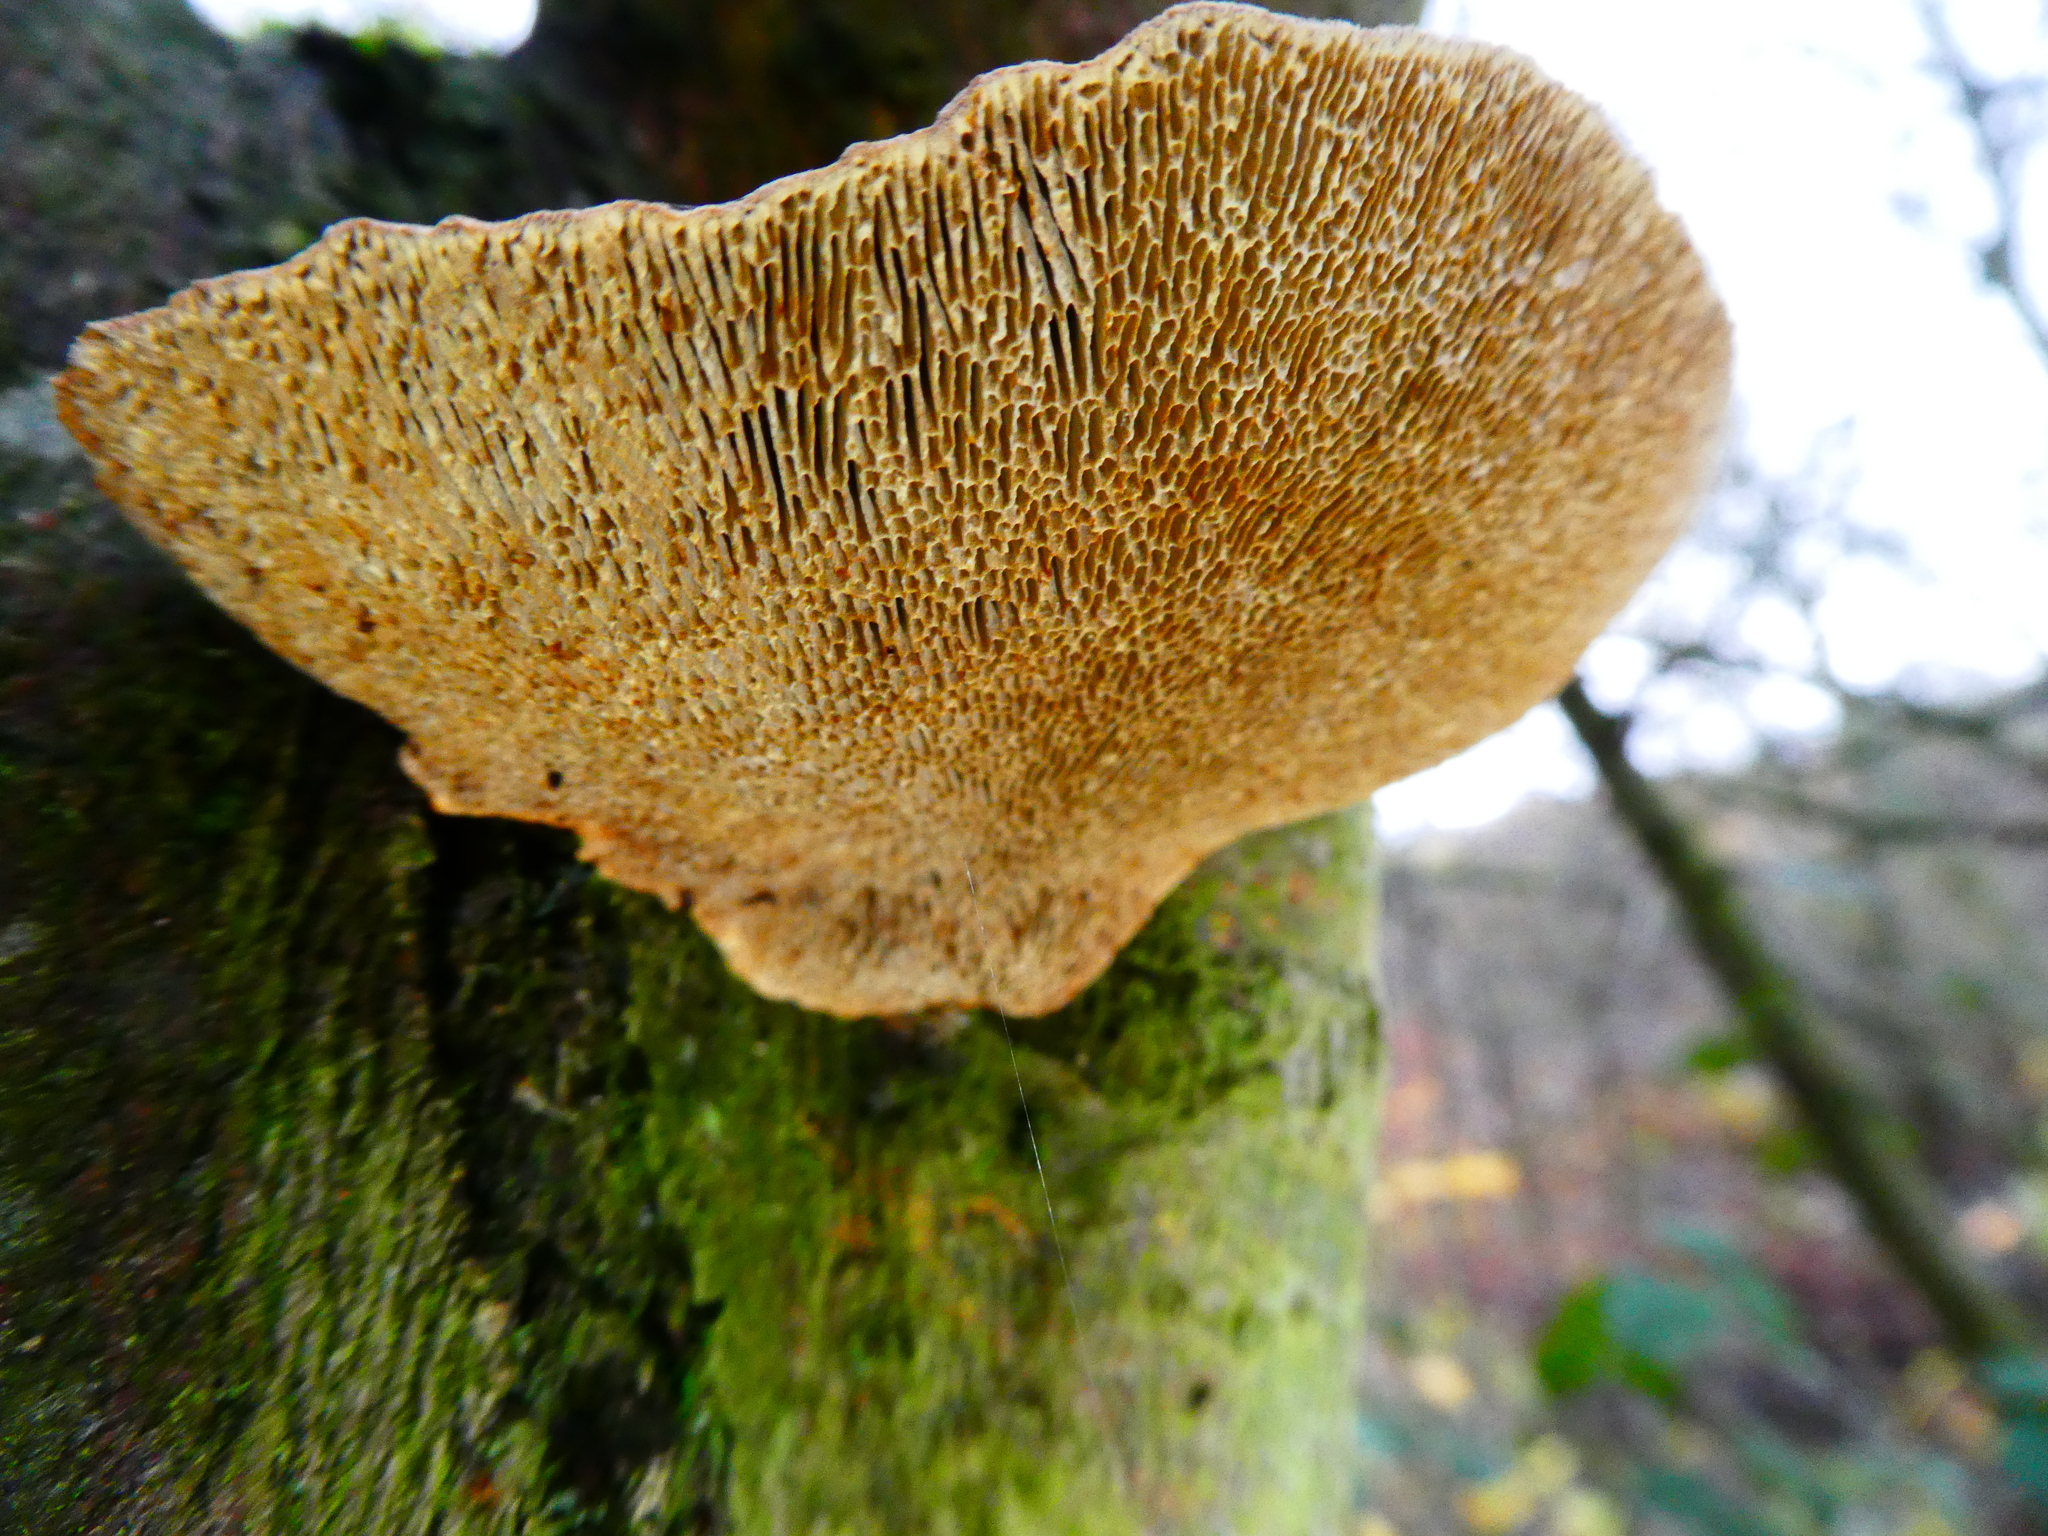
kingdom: Fungi
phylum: Basidiomycota
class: Agaricomycetes
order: Polyporales
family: Polyporaceae
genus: Daedaleopsis
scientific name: Daedaleopsis confragosa
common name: Blushing bracket
